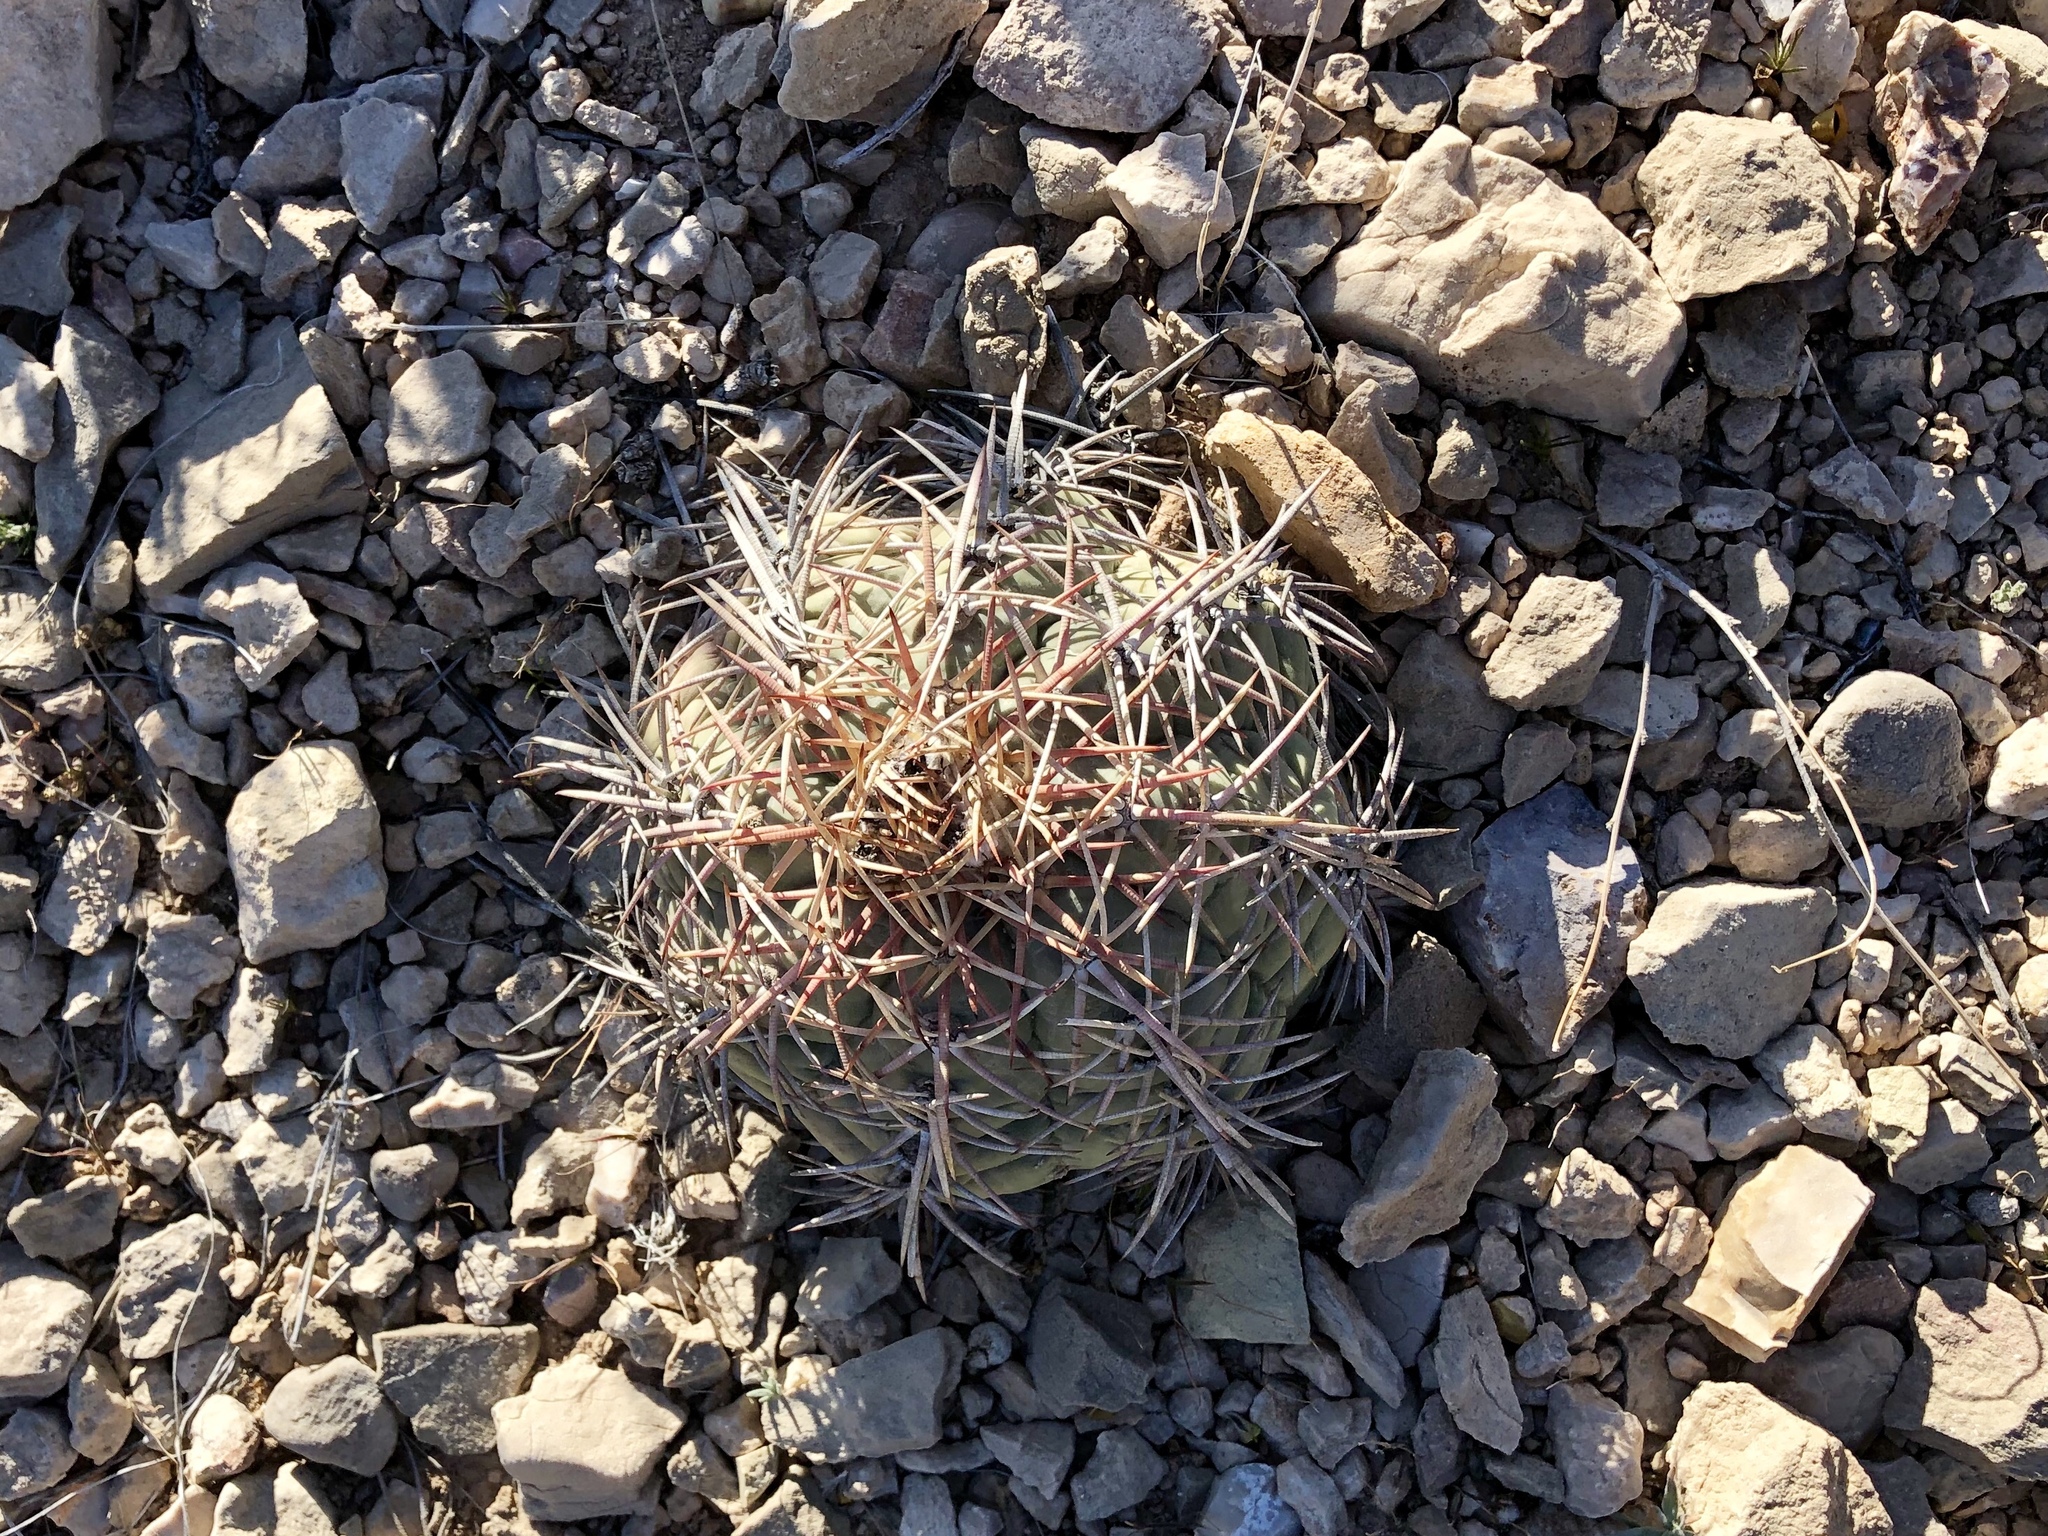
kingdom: Plantae
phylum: Tracheophyta
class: Magnoliopsida
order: Caryophyllales
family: Cactaceae
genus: Echinocactus
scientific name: Echinocactus horizonthalonius
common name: Devilshead
